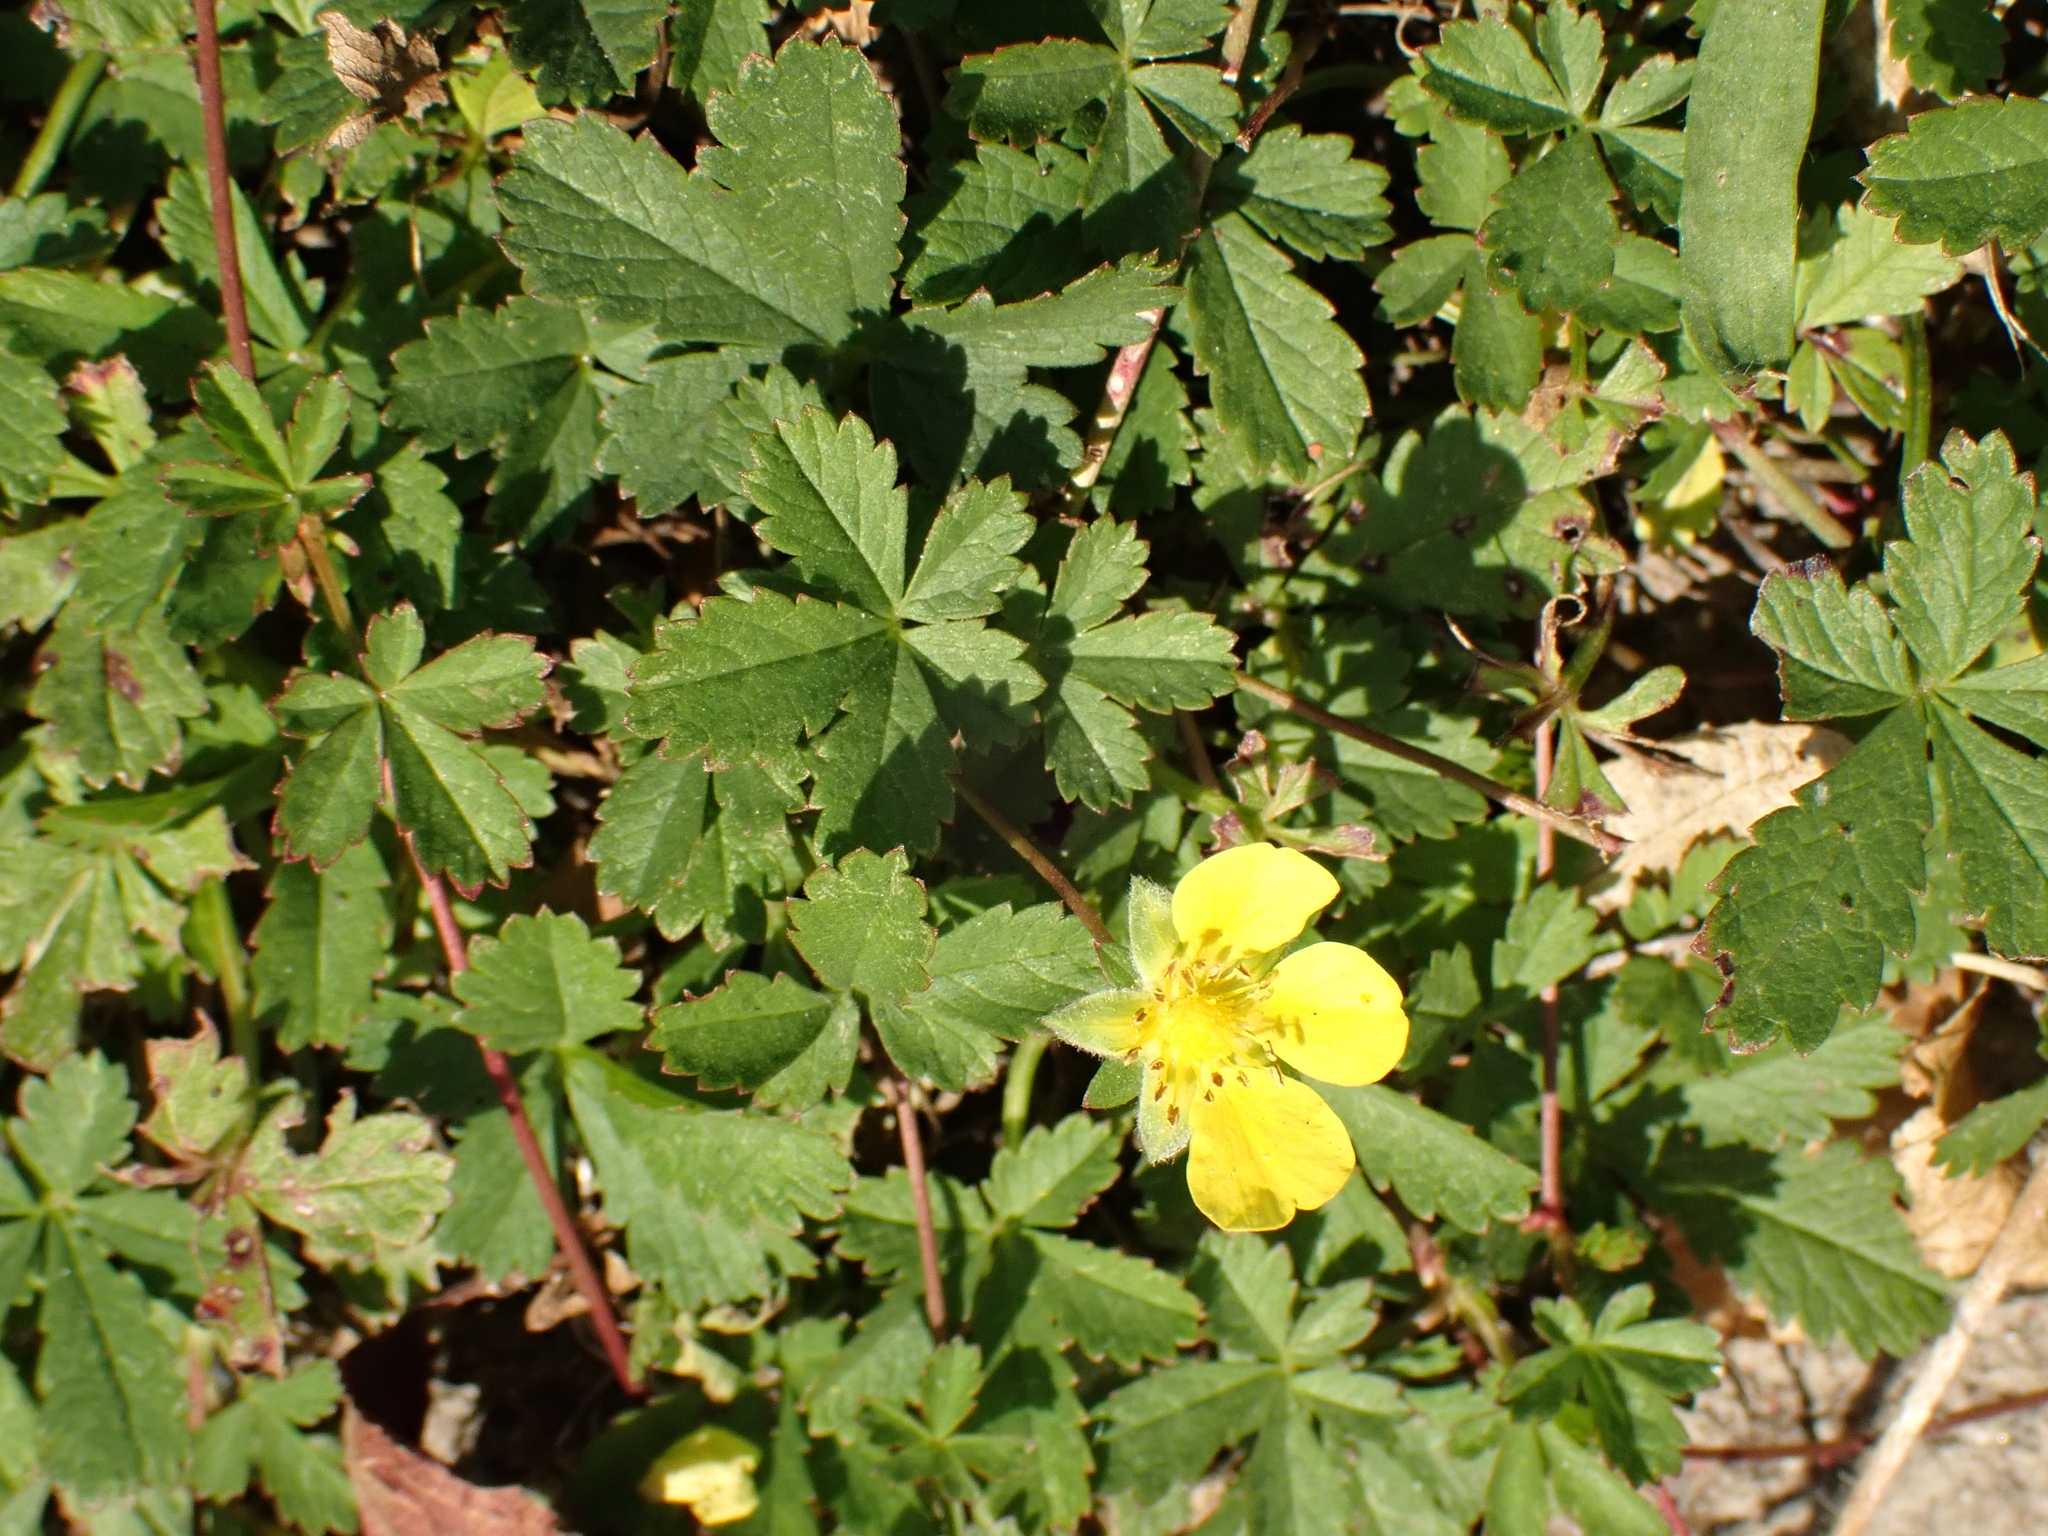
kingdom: Plantae
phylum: Tracheophyta
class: Magnoliopsida
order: Rosales
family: Rosaceae
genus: Potentilla
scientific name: Potentilla reptans
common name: Creeping cinquefoil
